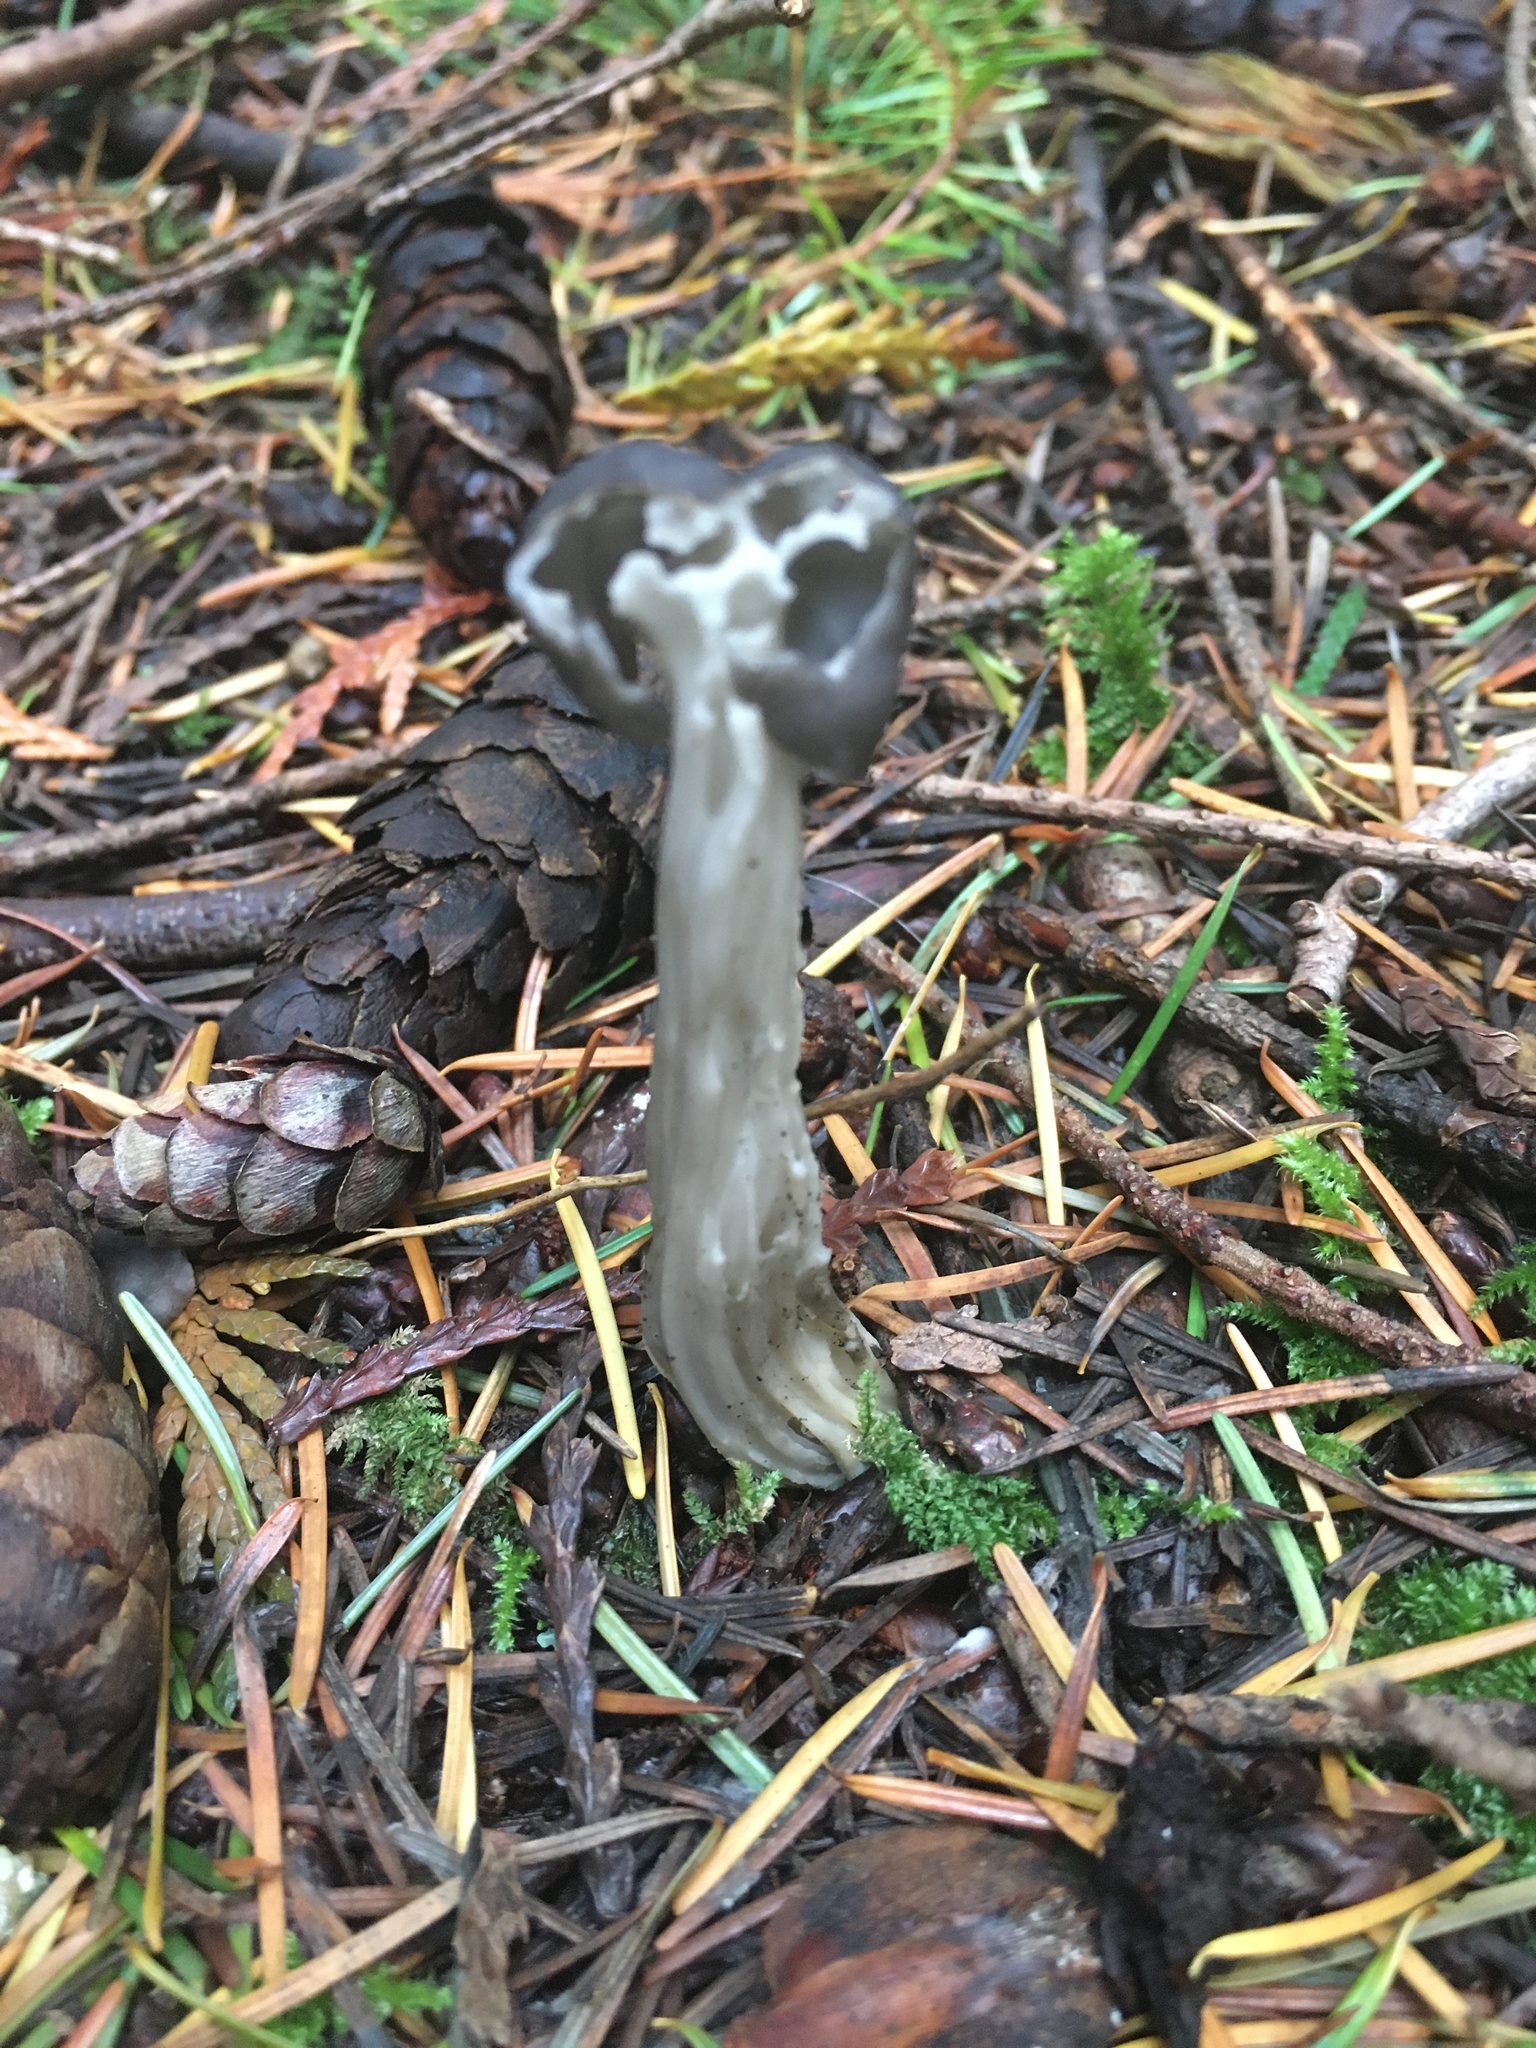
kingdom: Fungi
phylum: Ascomycota
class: Pezizomycetes
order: Pezizales
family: Helvellaceae
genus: Helvella
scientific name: Helvella vespertina
